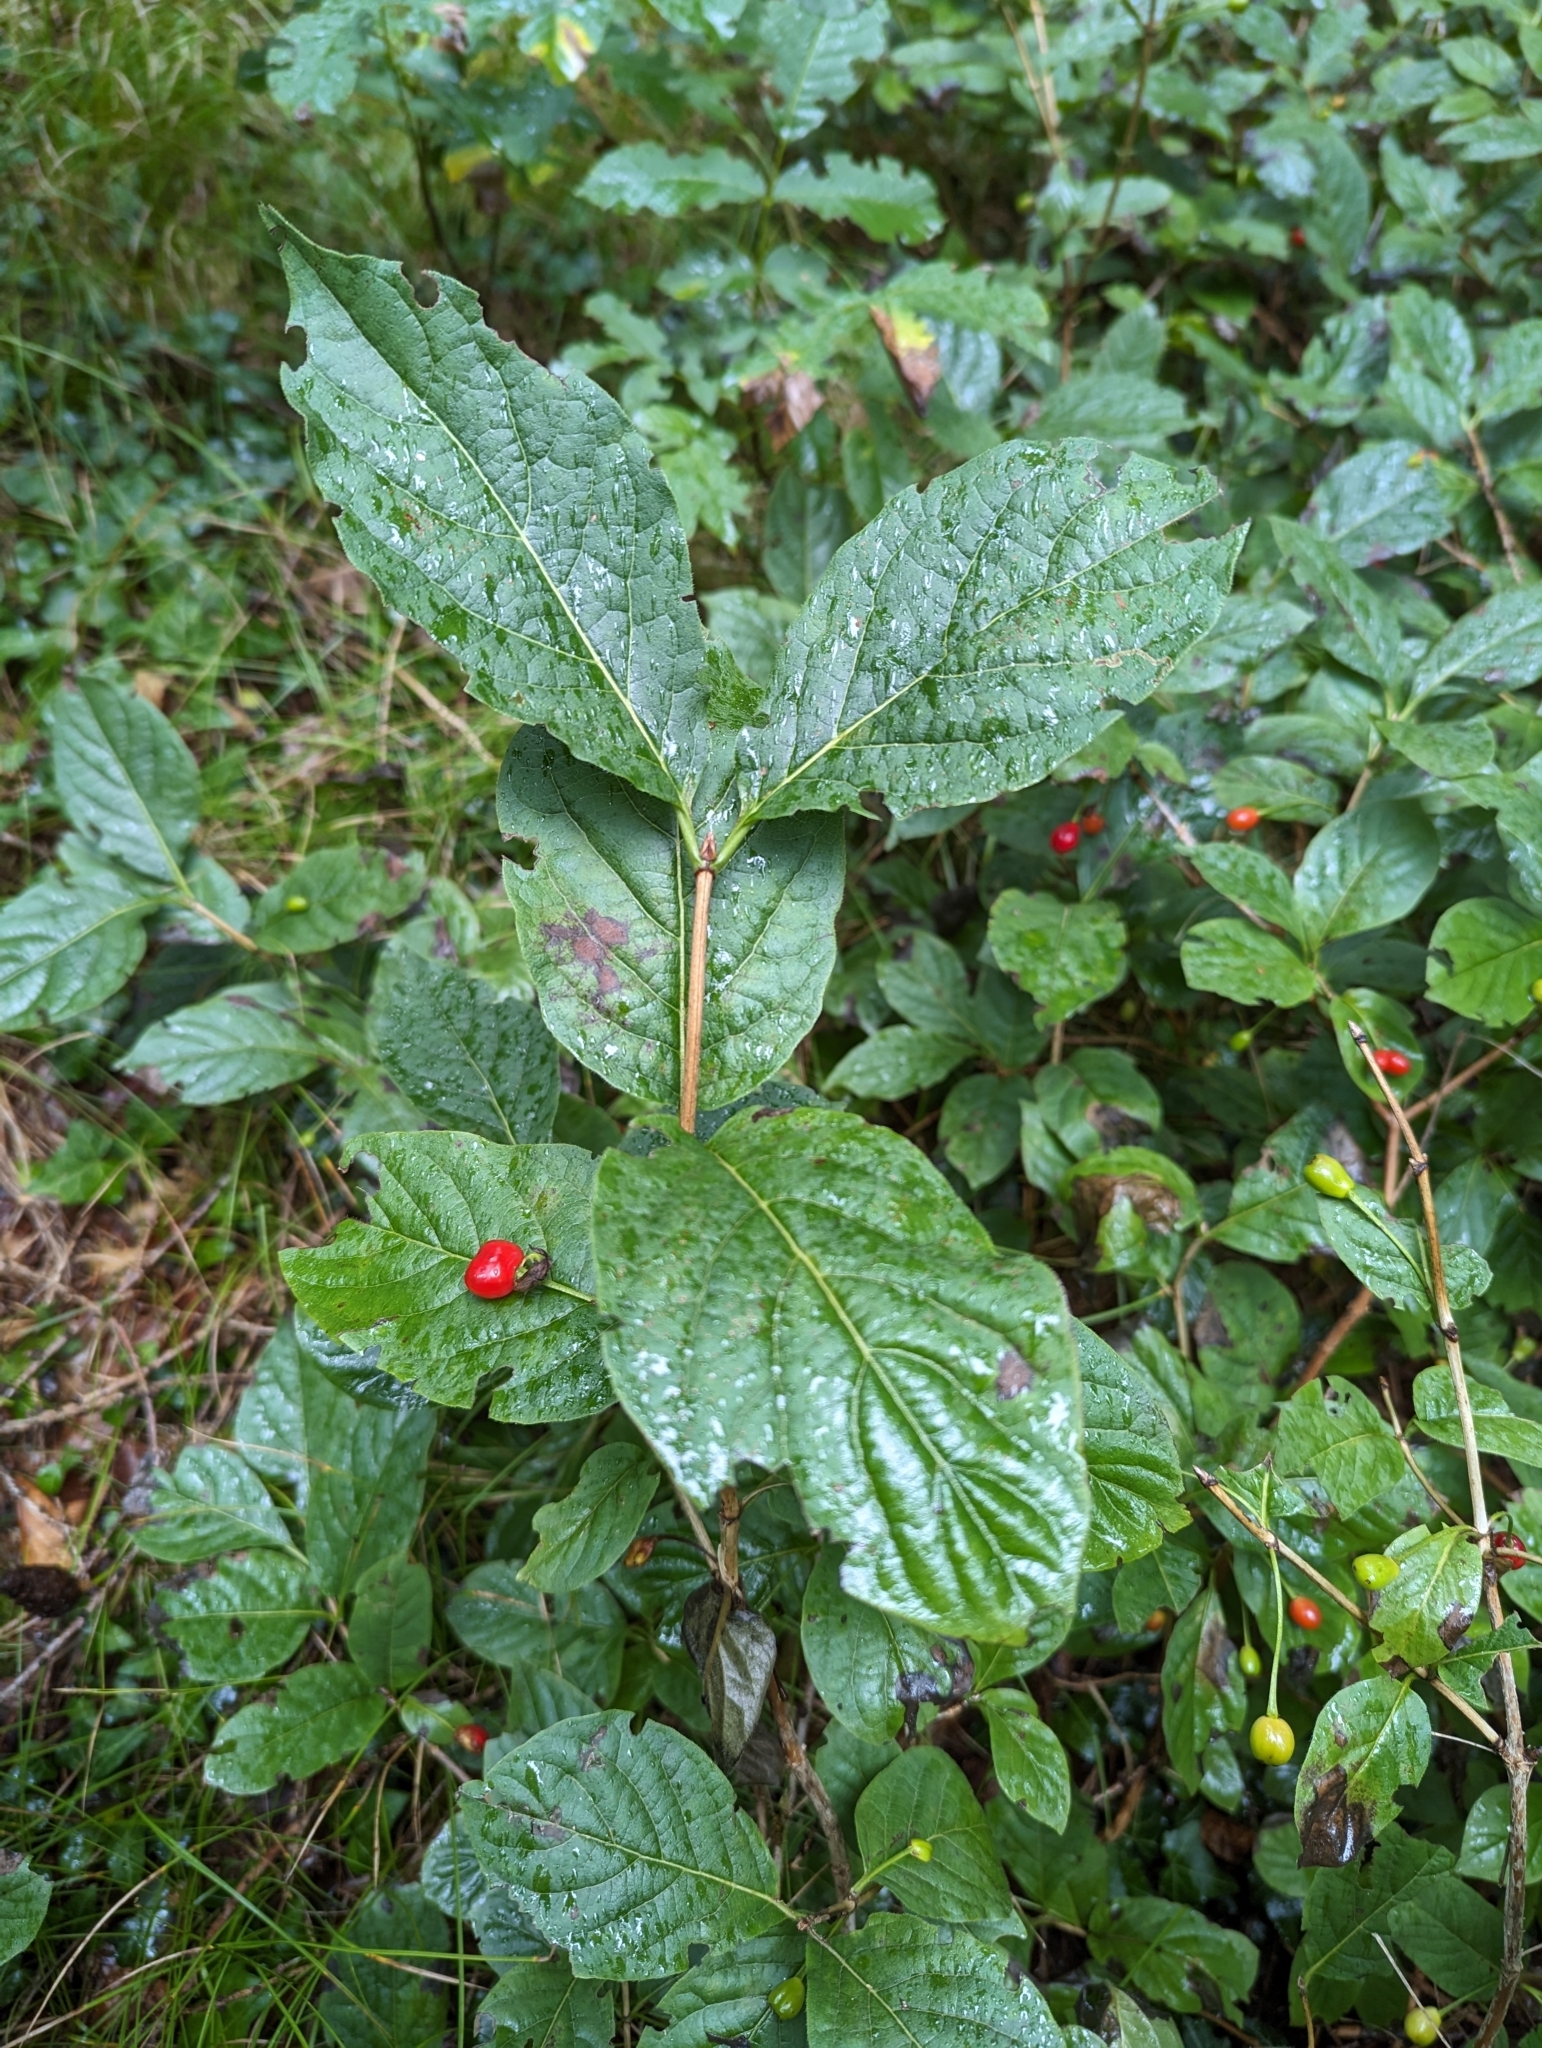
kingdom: Plantae
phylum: Tracheophyta
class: Magnoliopsida
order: Dipsacales
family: Caprifoliaceae
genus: Lonicera
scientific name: Lonicera alpigena
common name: Alpine honeysuckle
